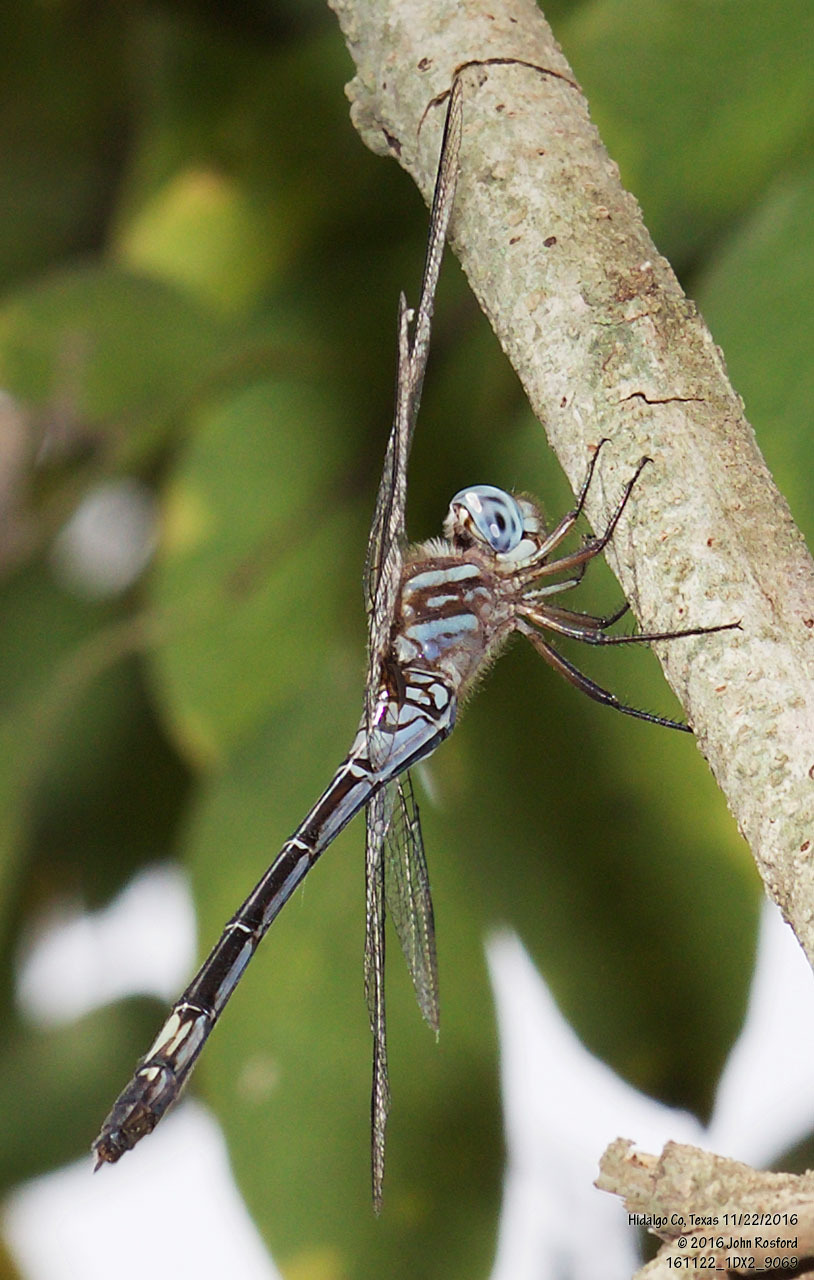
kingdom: Animalia
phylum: Arthropoda
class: Insecta
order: Odonata
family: Libellulidae
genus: Brechmorhoga
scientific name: Brechmorhoga mendax
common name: Pale-faced clubskimmer
